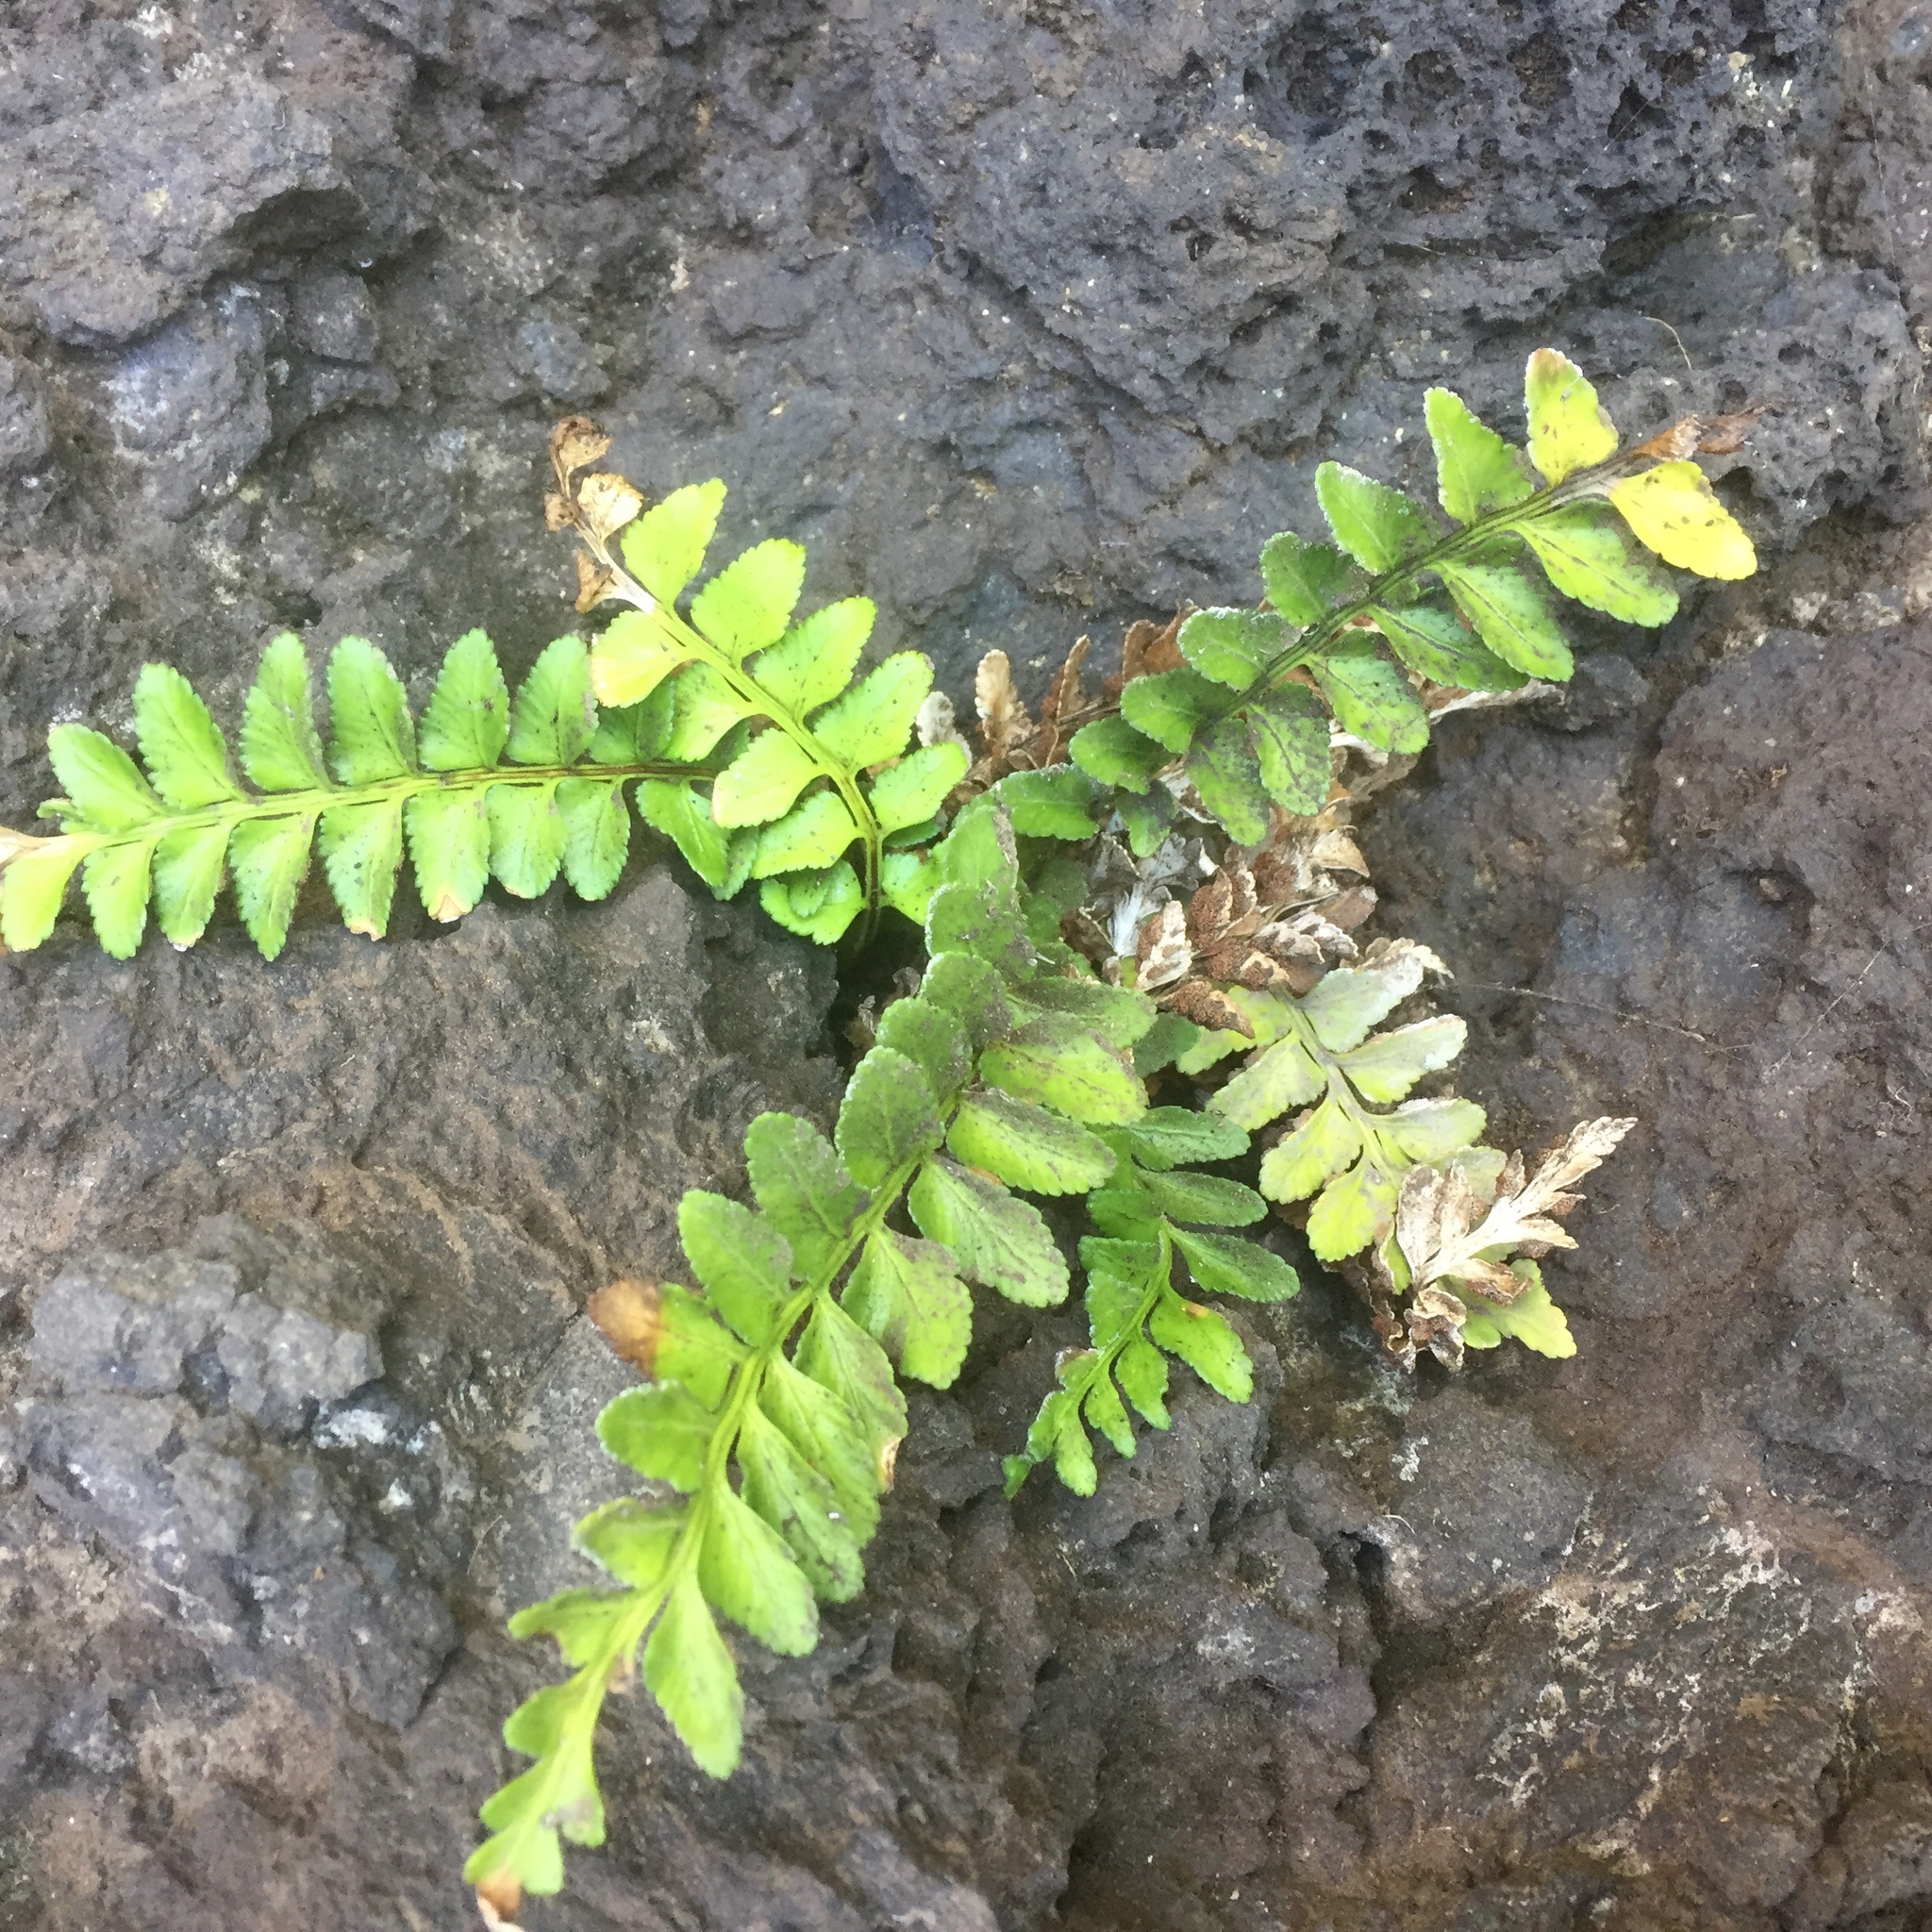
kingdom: Plantae
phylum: Tracheophyta
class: Polypodiopsida
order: Polypodiales
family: Aspleniaceae
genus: Asplenium
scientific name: Asplenium marinum
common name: Sea spleenwort
